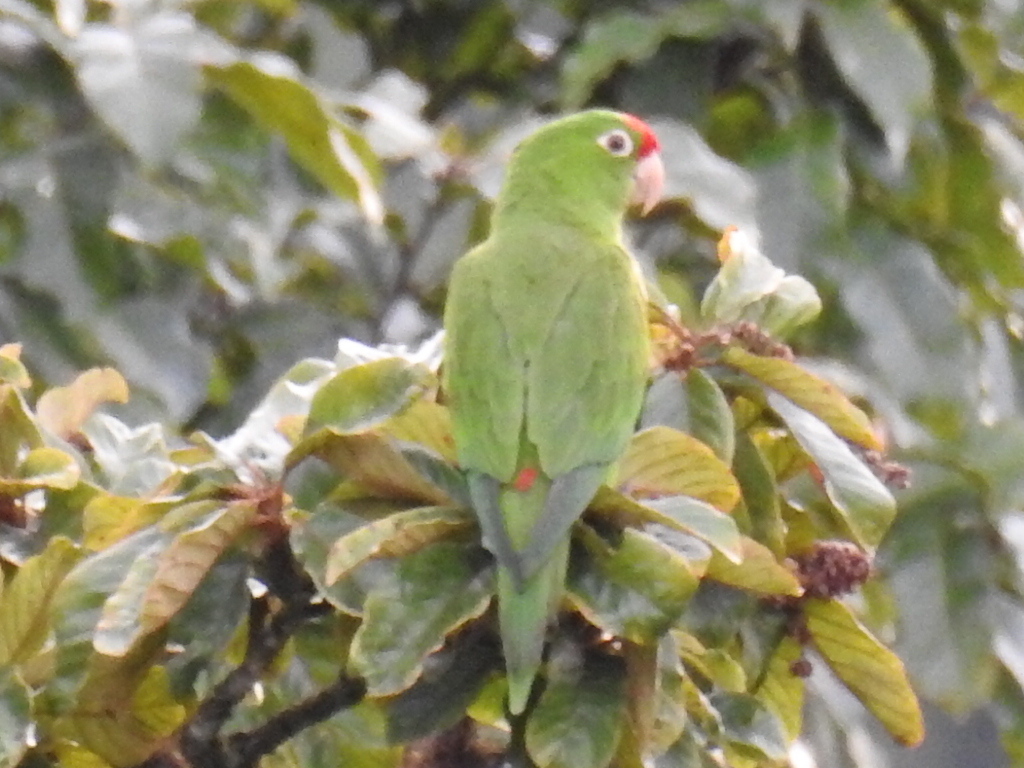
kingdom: Animalia
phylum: Chordata
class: Aves
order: Psittaciformes
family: Psittacidae
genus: Aratinga
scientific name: Aratinga finschi
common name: Crimson-fronted parakeet
